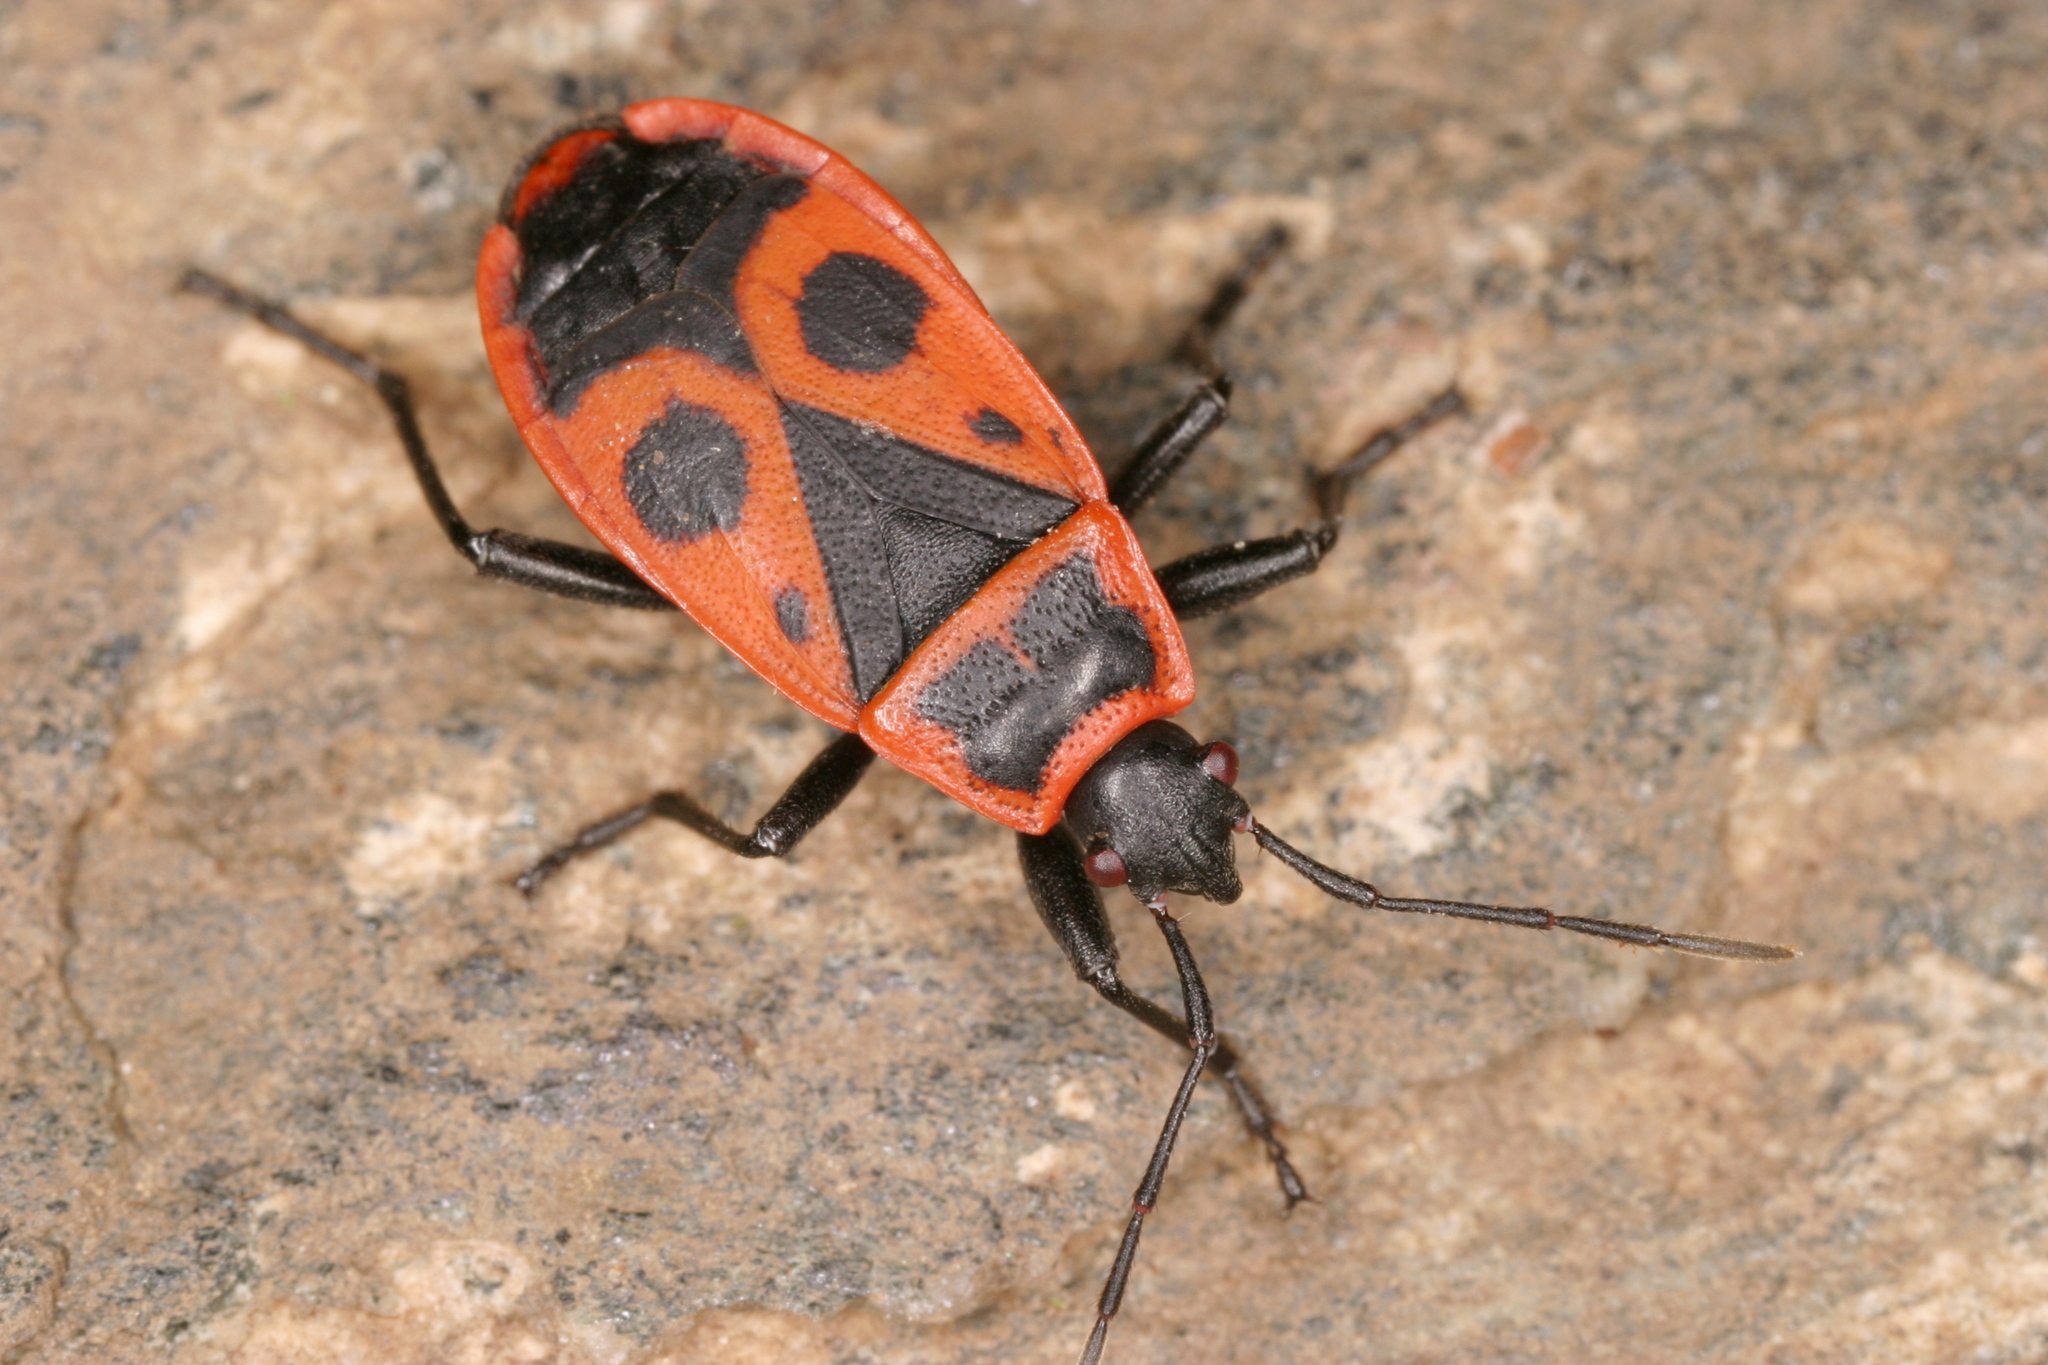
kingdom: Animalia
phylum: Arthropoda
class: Insecta
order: Hemiptera
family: Pyrrhocoridae
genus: Pyrrhocoris
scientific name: Pyrrhocoris apterus
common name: Firebug
